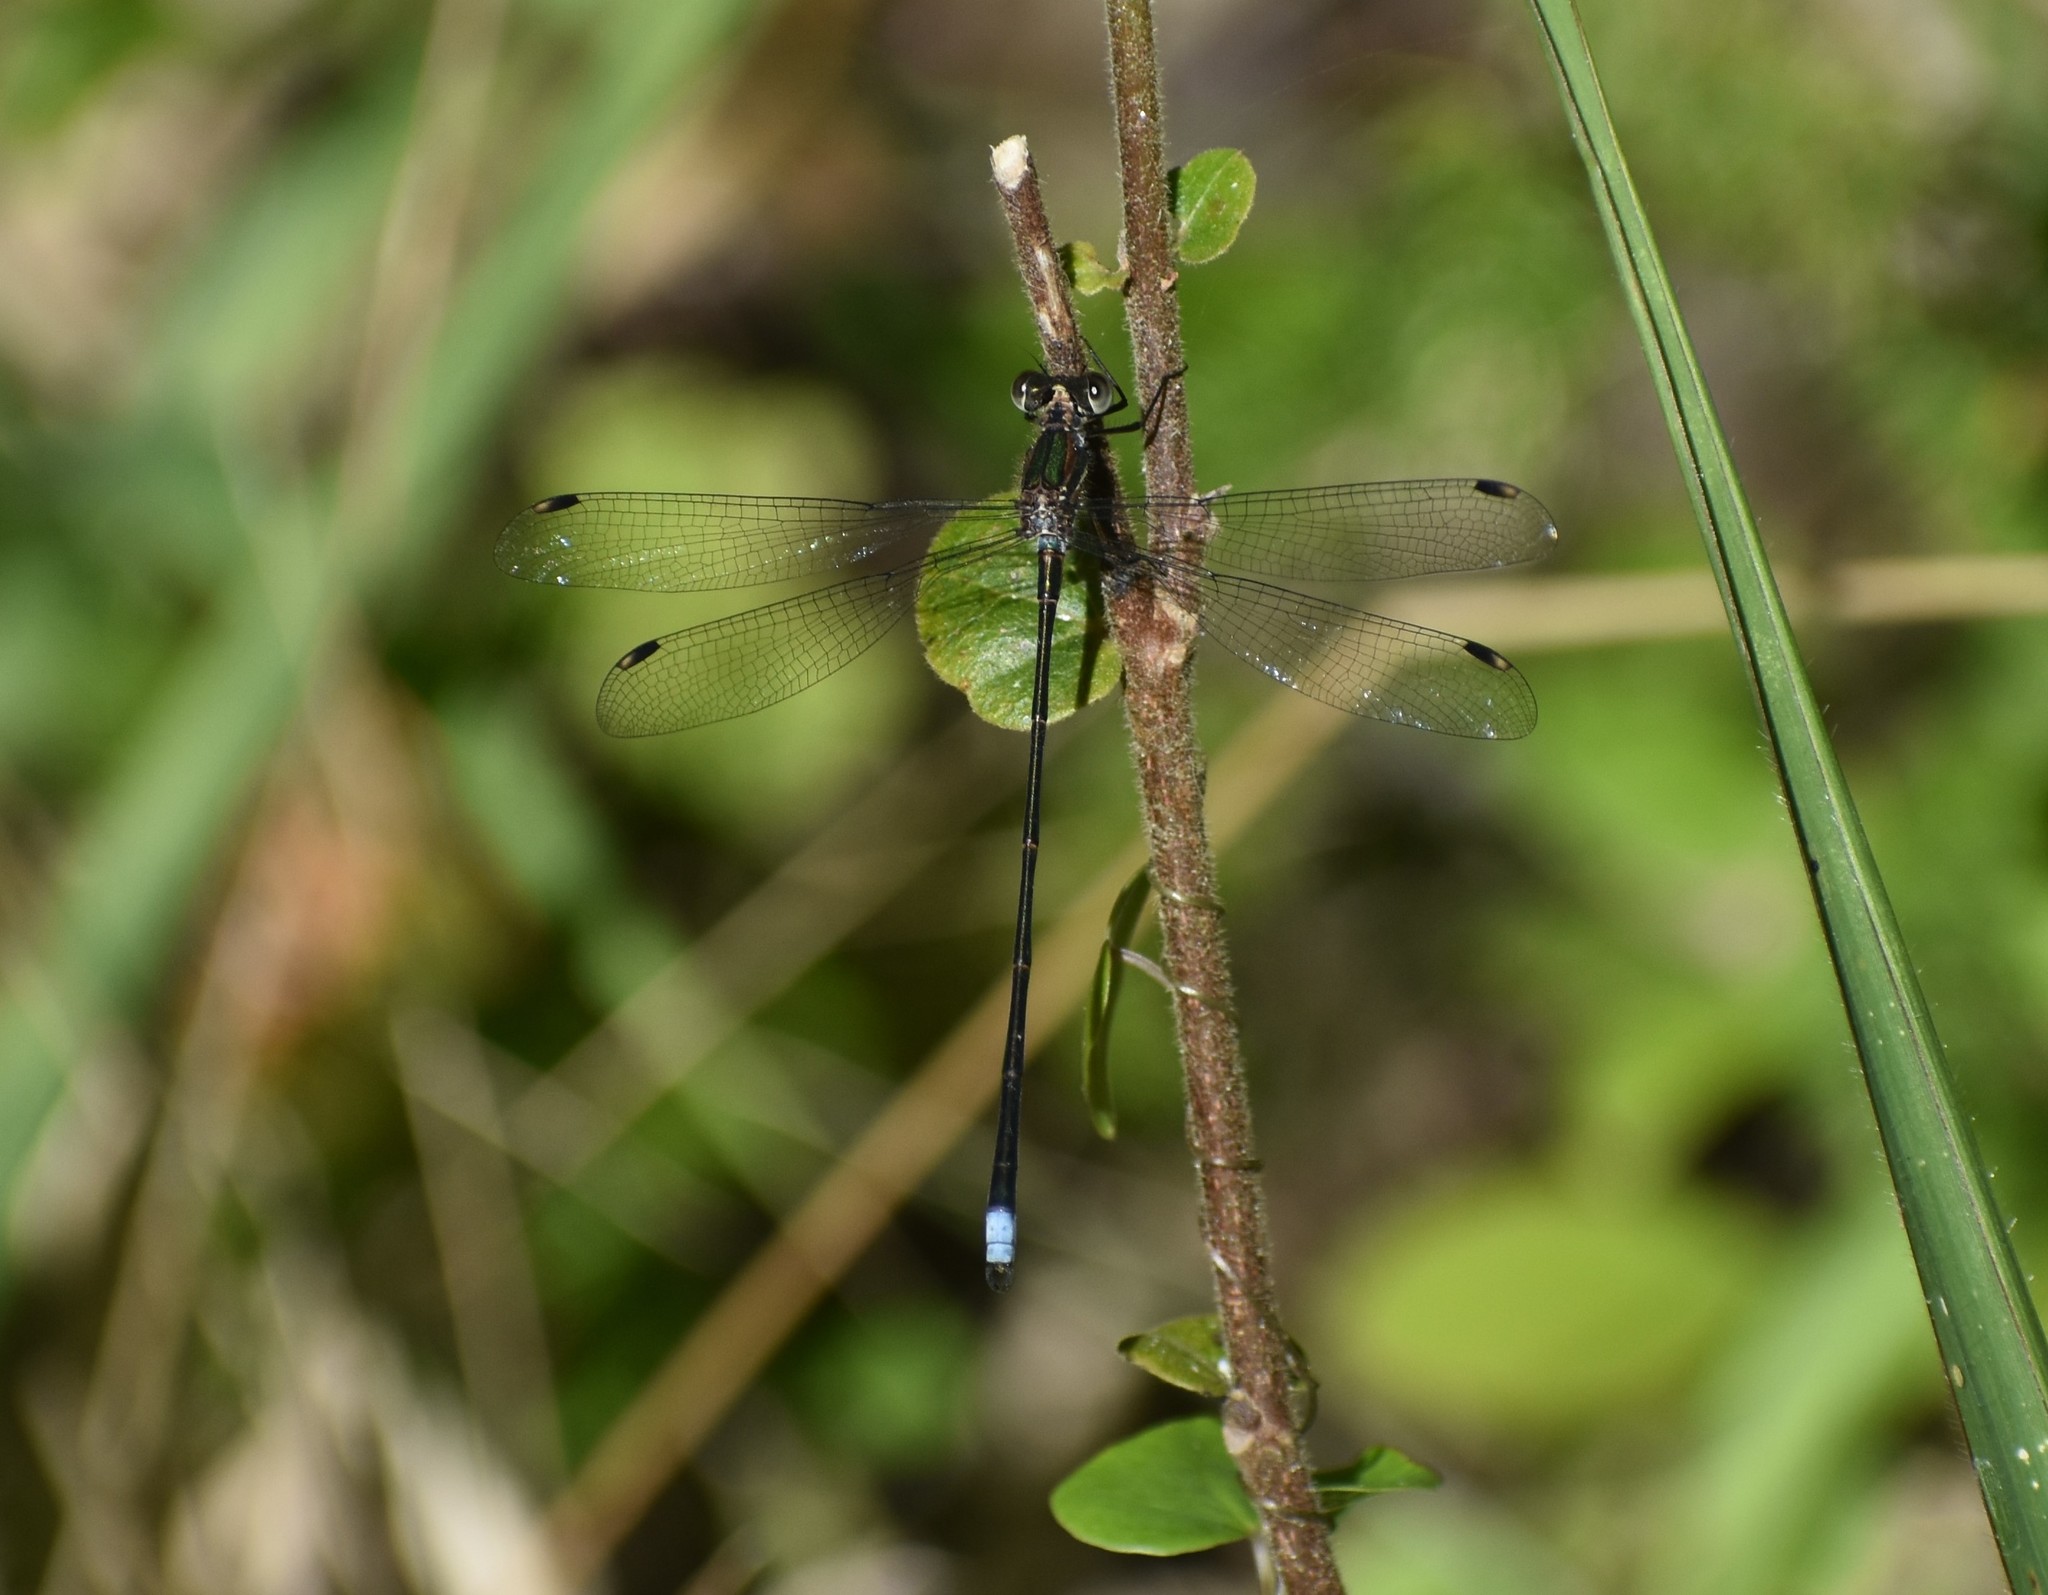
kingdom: Animalia
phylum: Arthropoda
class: Insecta
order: Odonata
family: Synlestidae
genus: Chlorolestes
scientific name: Chlorolestes tessellatus
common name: Forest malachite
